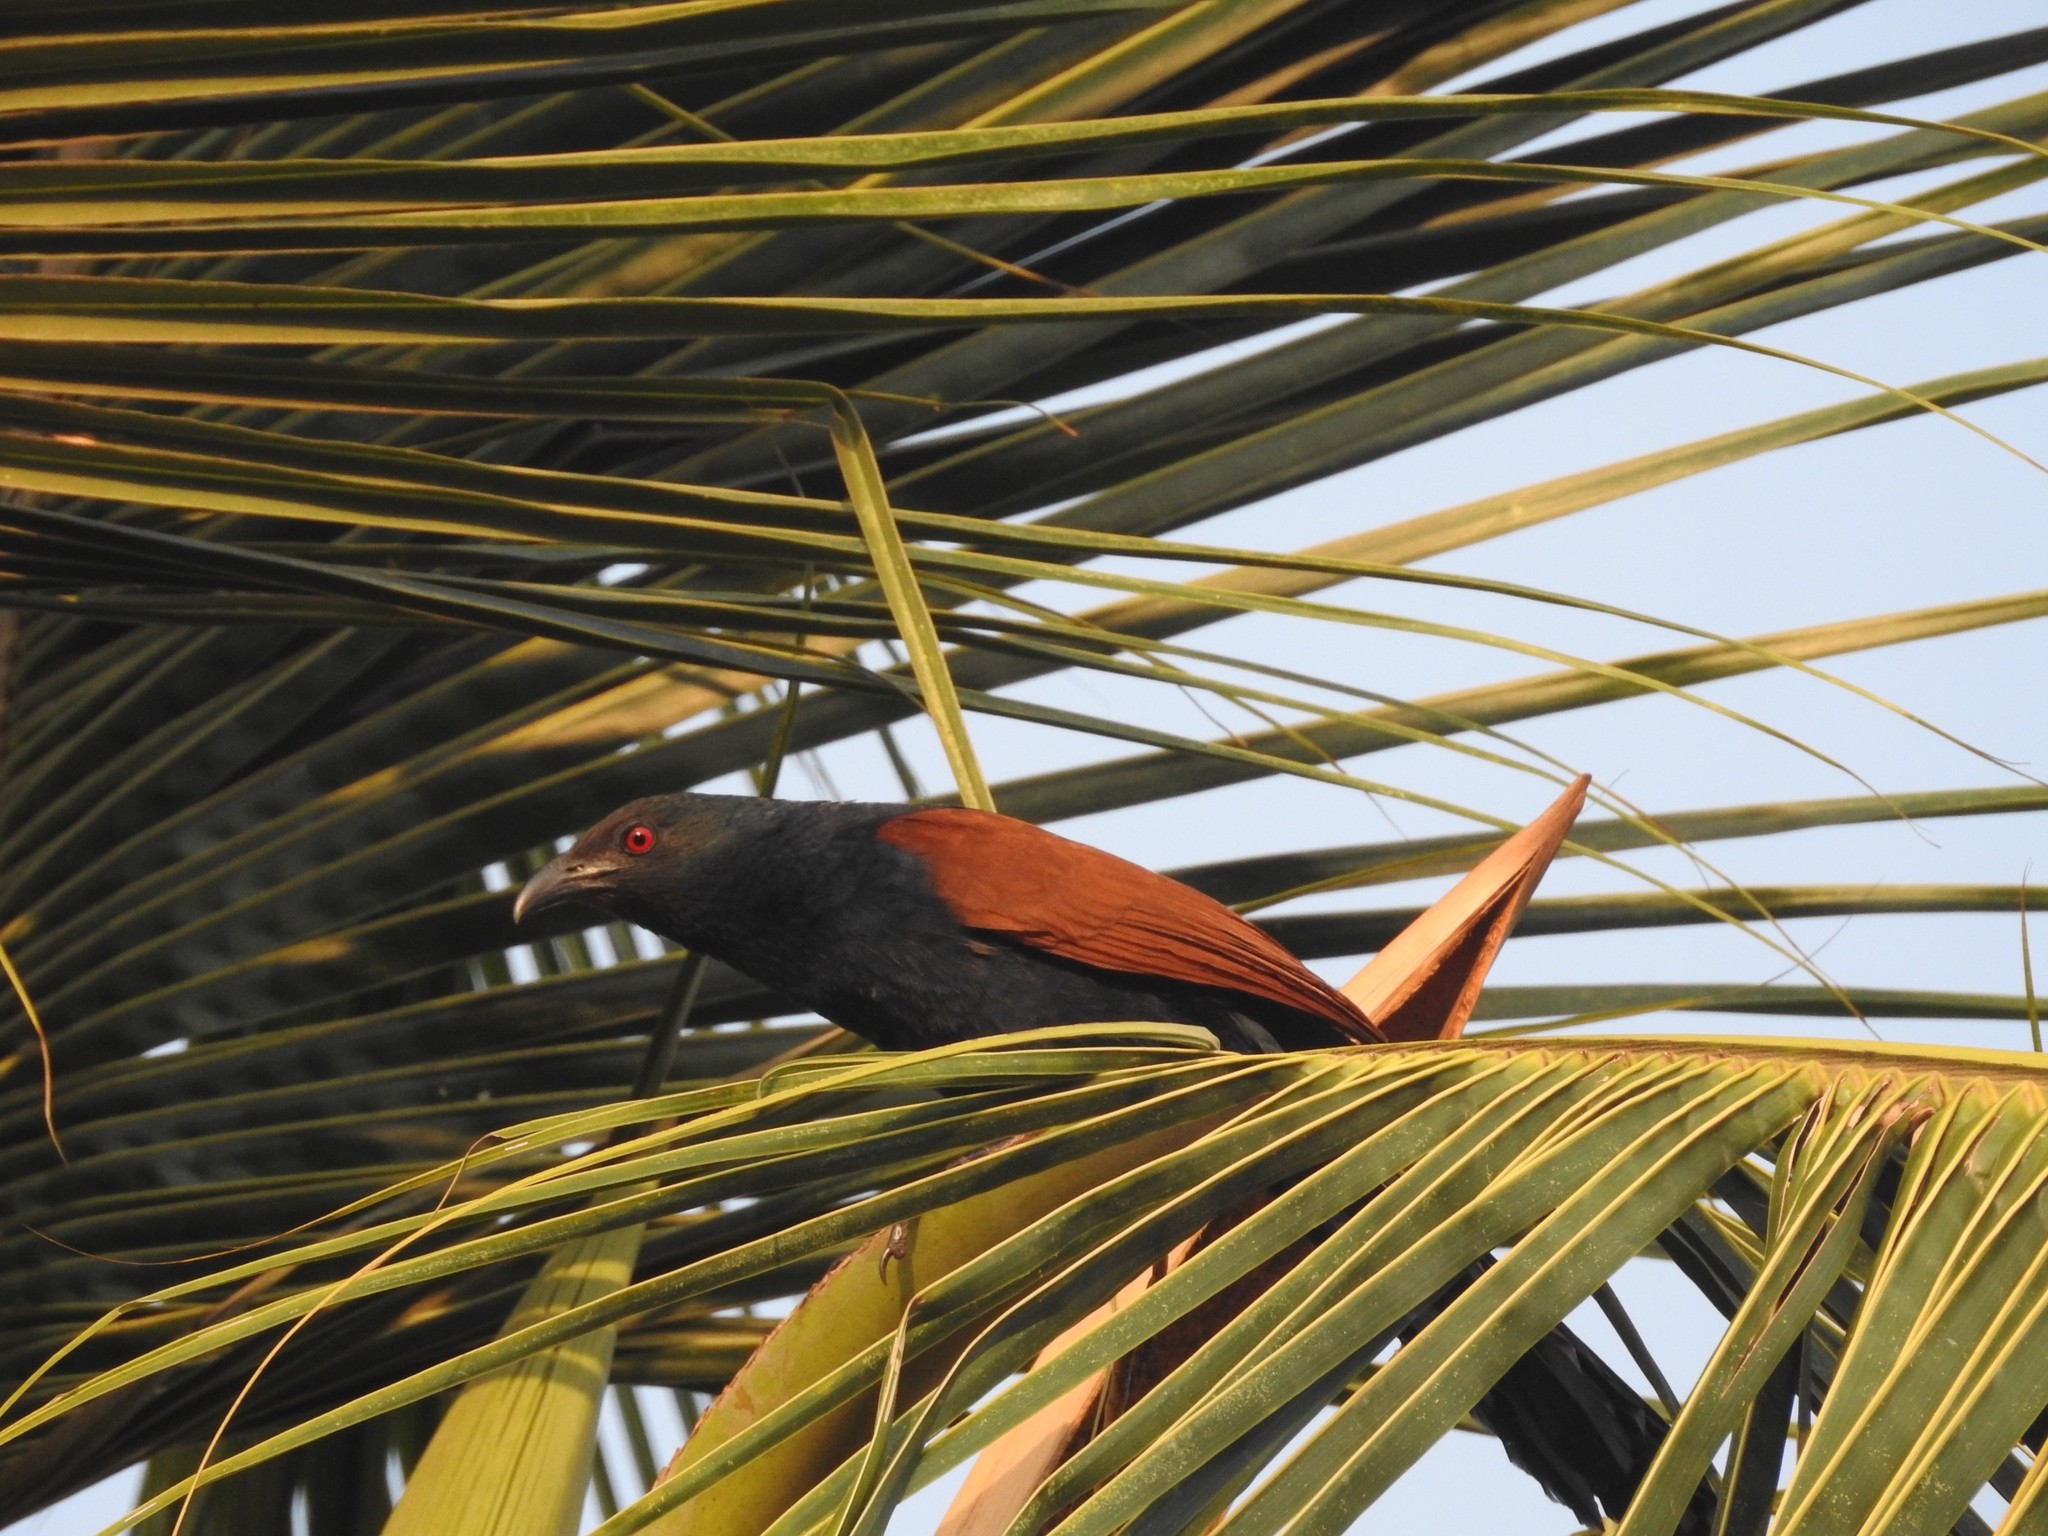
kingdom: Animalia
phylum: Chordata
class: Aves
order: Cuculiformes
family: Cuculidae
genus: Centropus
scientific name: Centropus sinensis
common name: Greater coucal
